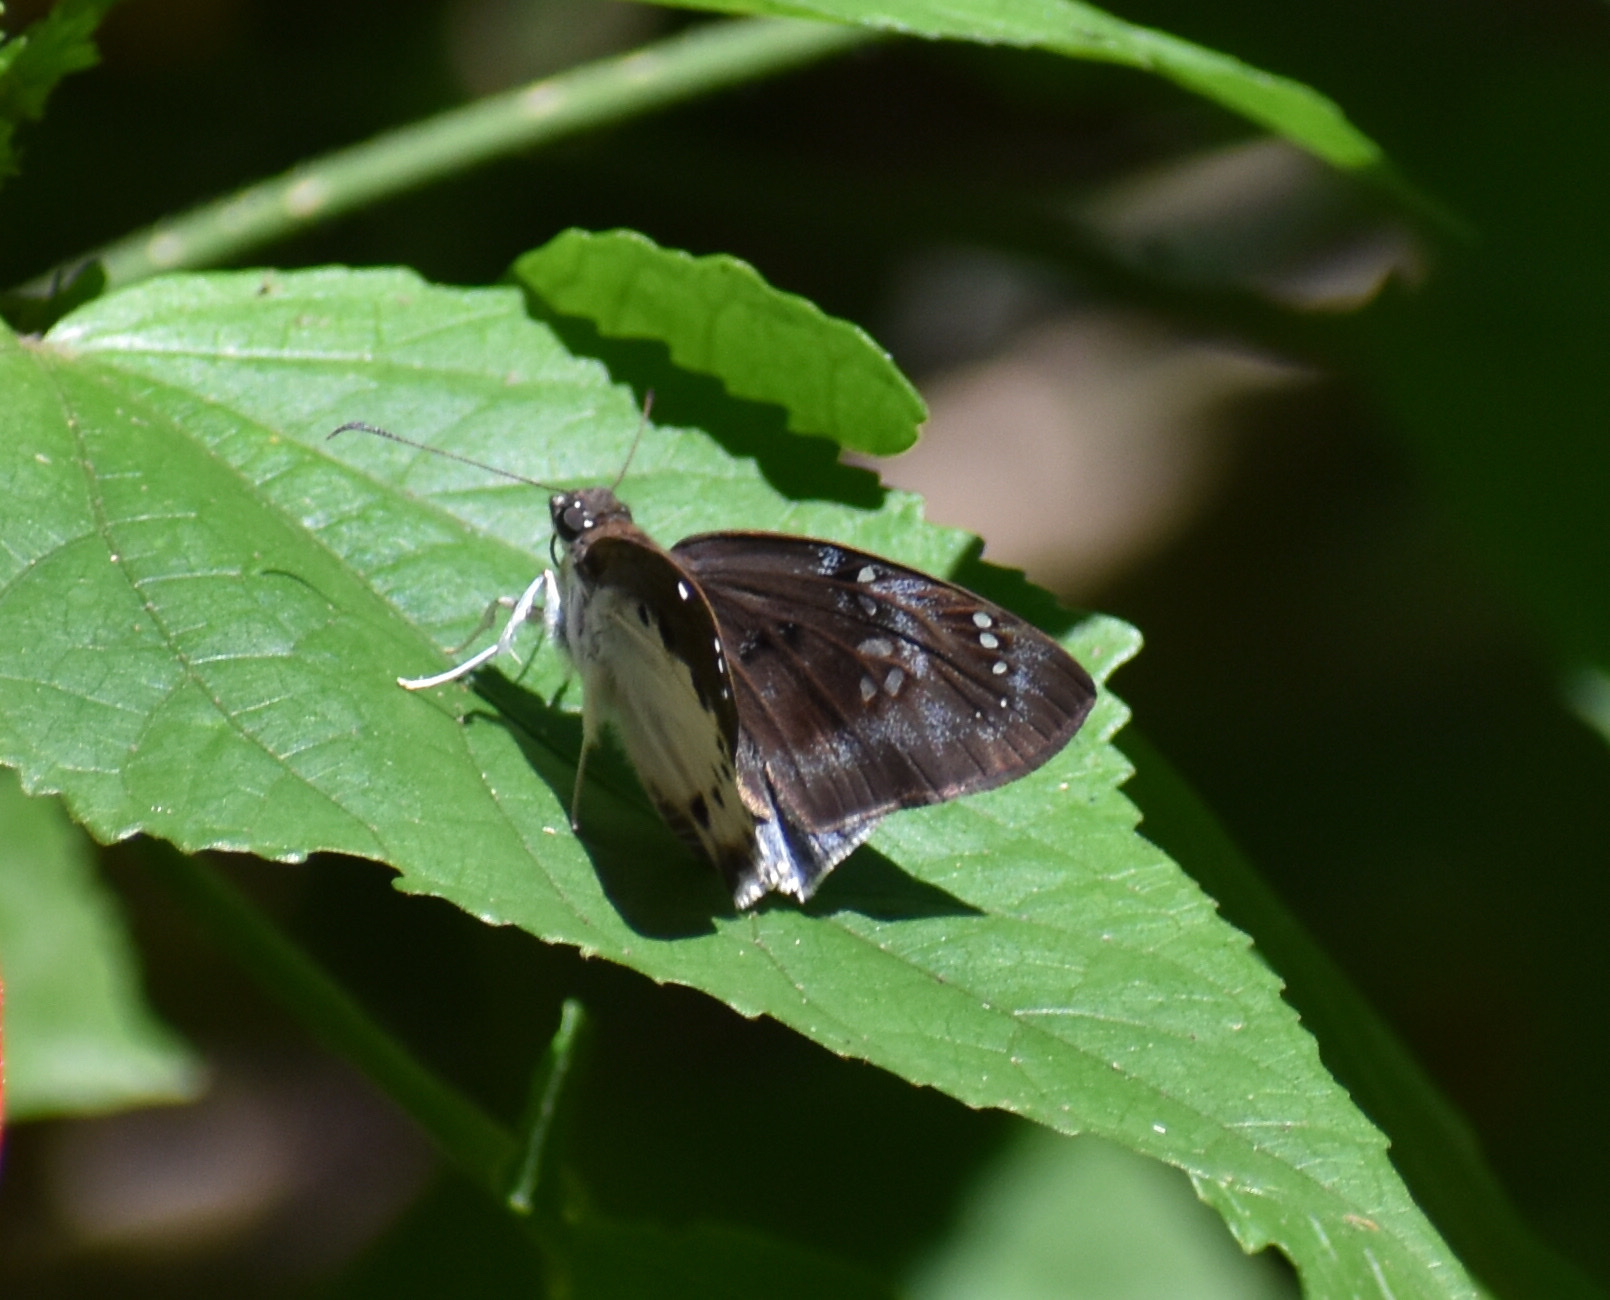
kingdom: Animalia
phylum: Arthropoda
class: Insecta
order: Lepidoptera
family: Hesperiidae
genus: Tagiades
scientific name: Tagiades flesus
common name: Clouded flat
